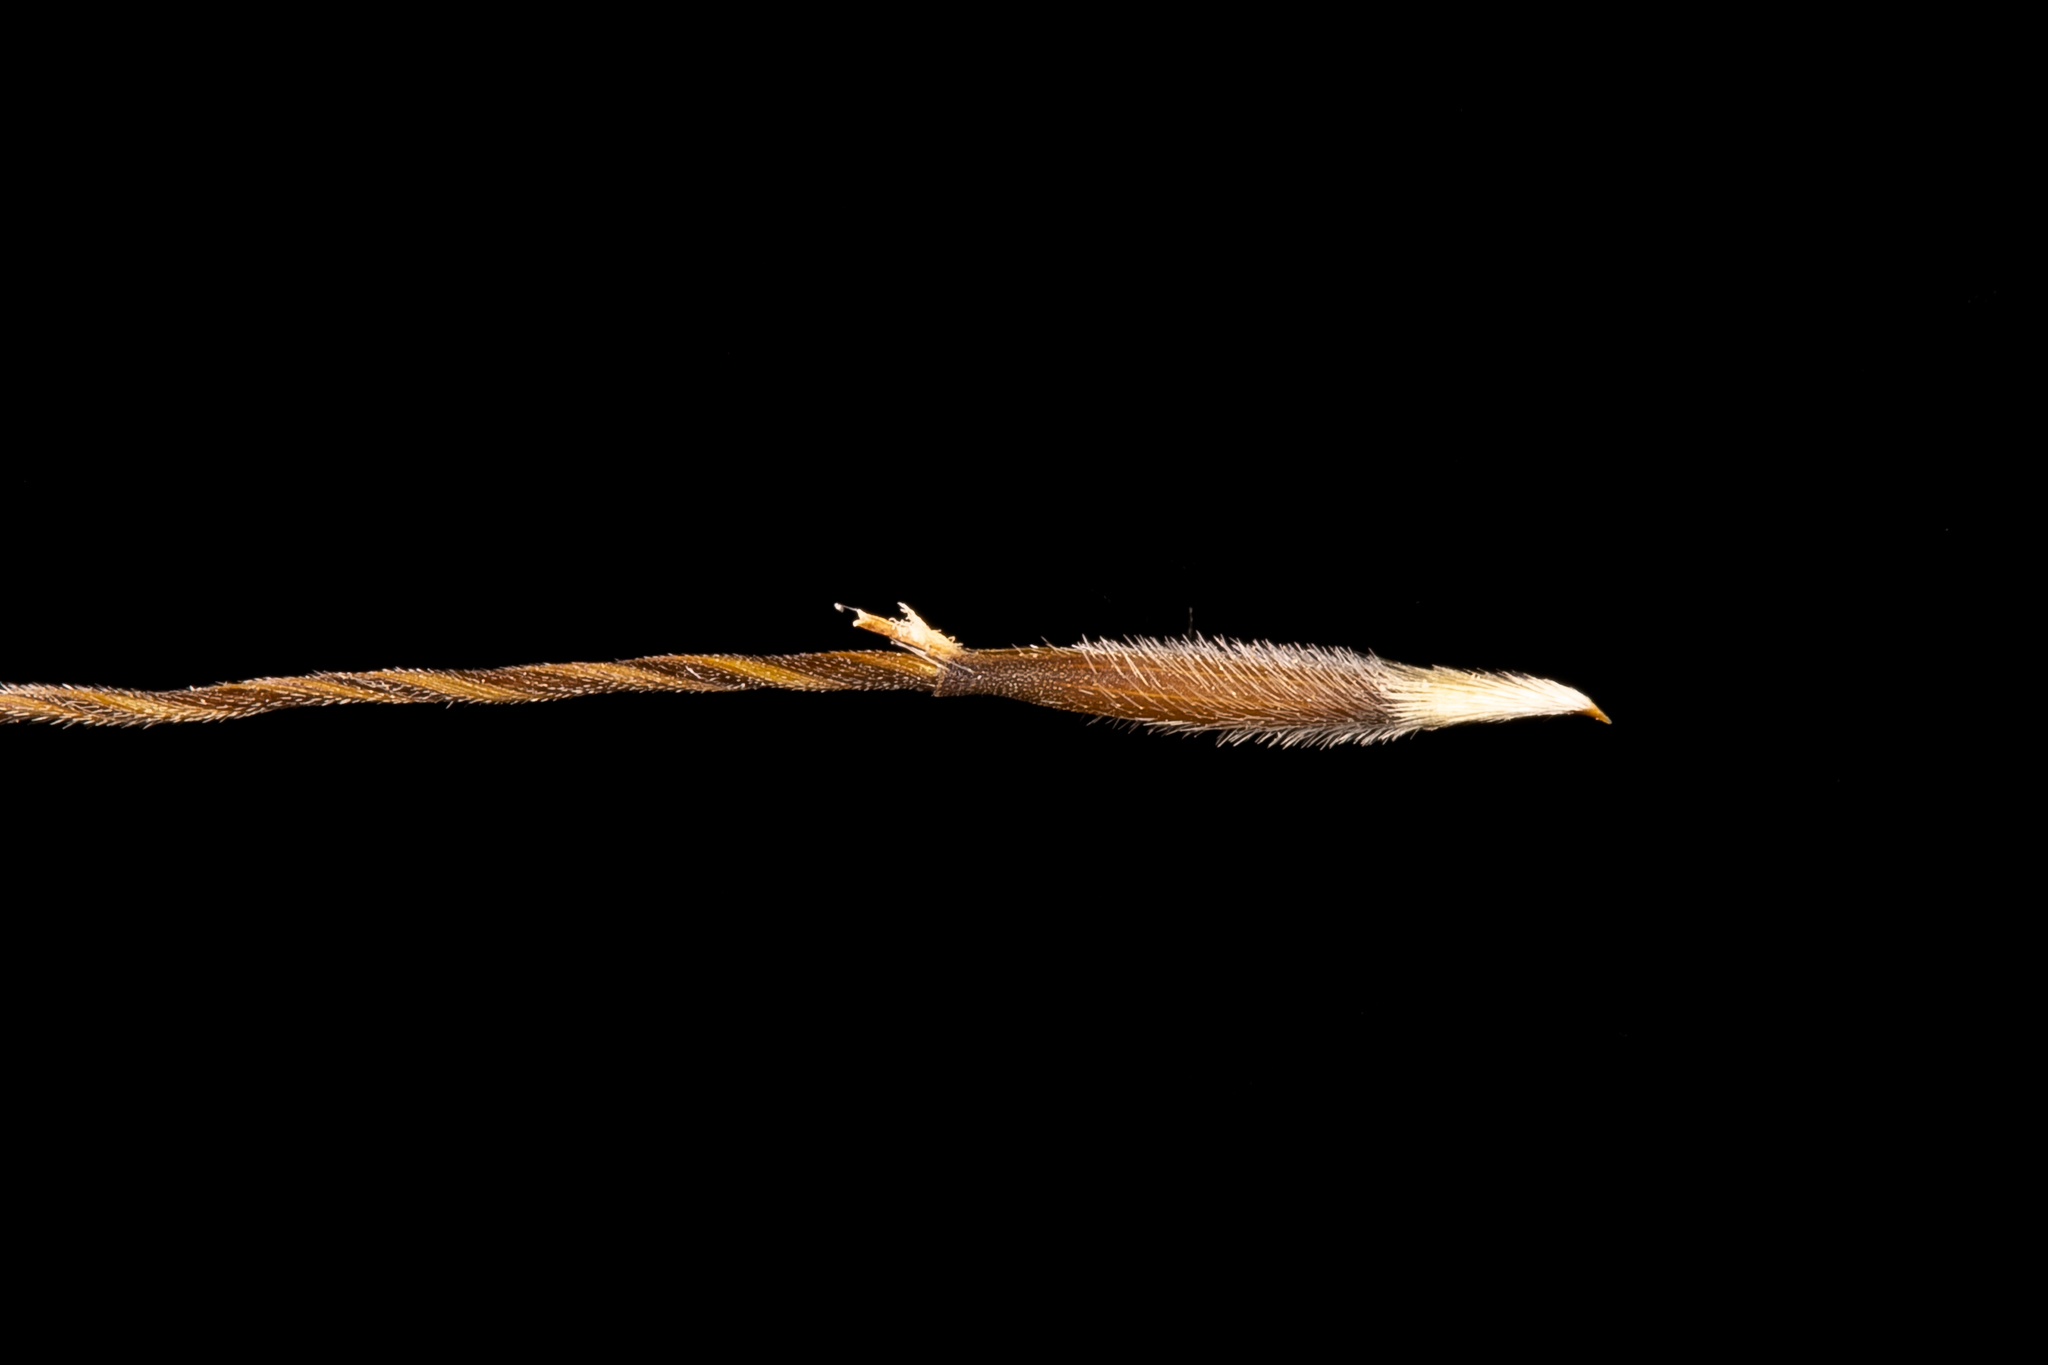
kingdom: Plantae
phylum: Tracheophyta
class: Liliopsida
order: Poales
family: Poaceae
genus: Austrostipa
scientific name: Austrostipa scabra
